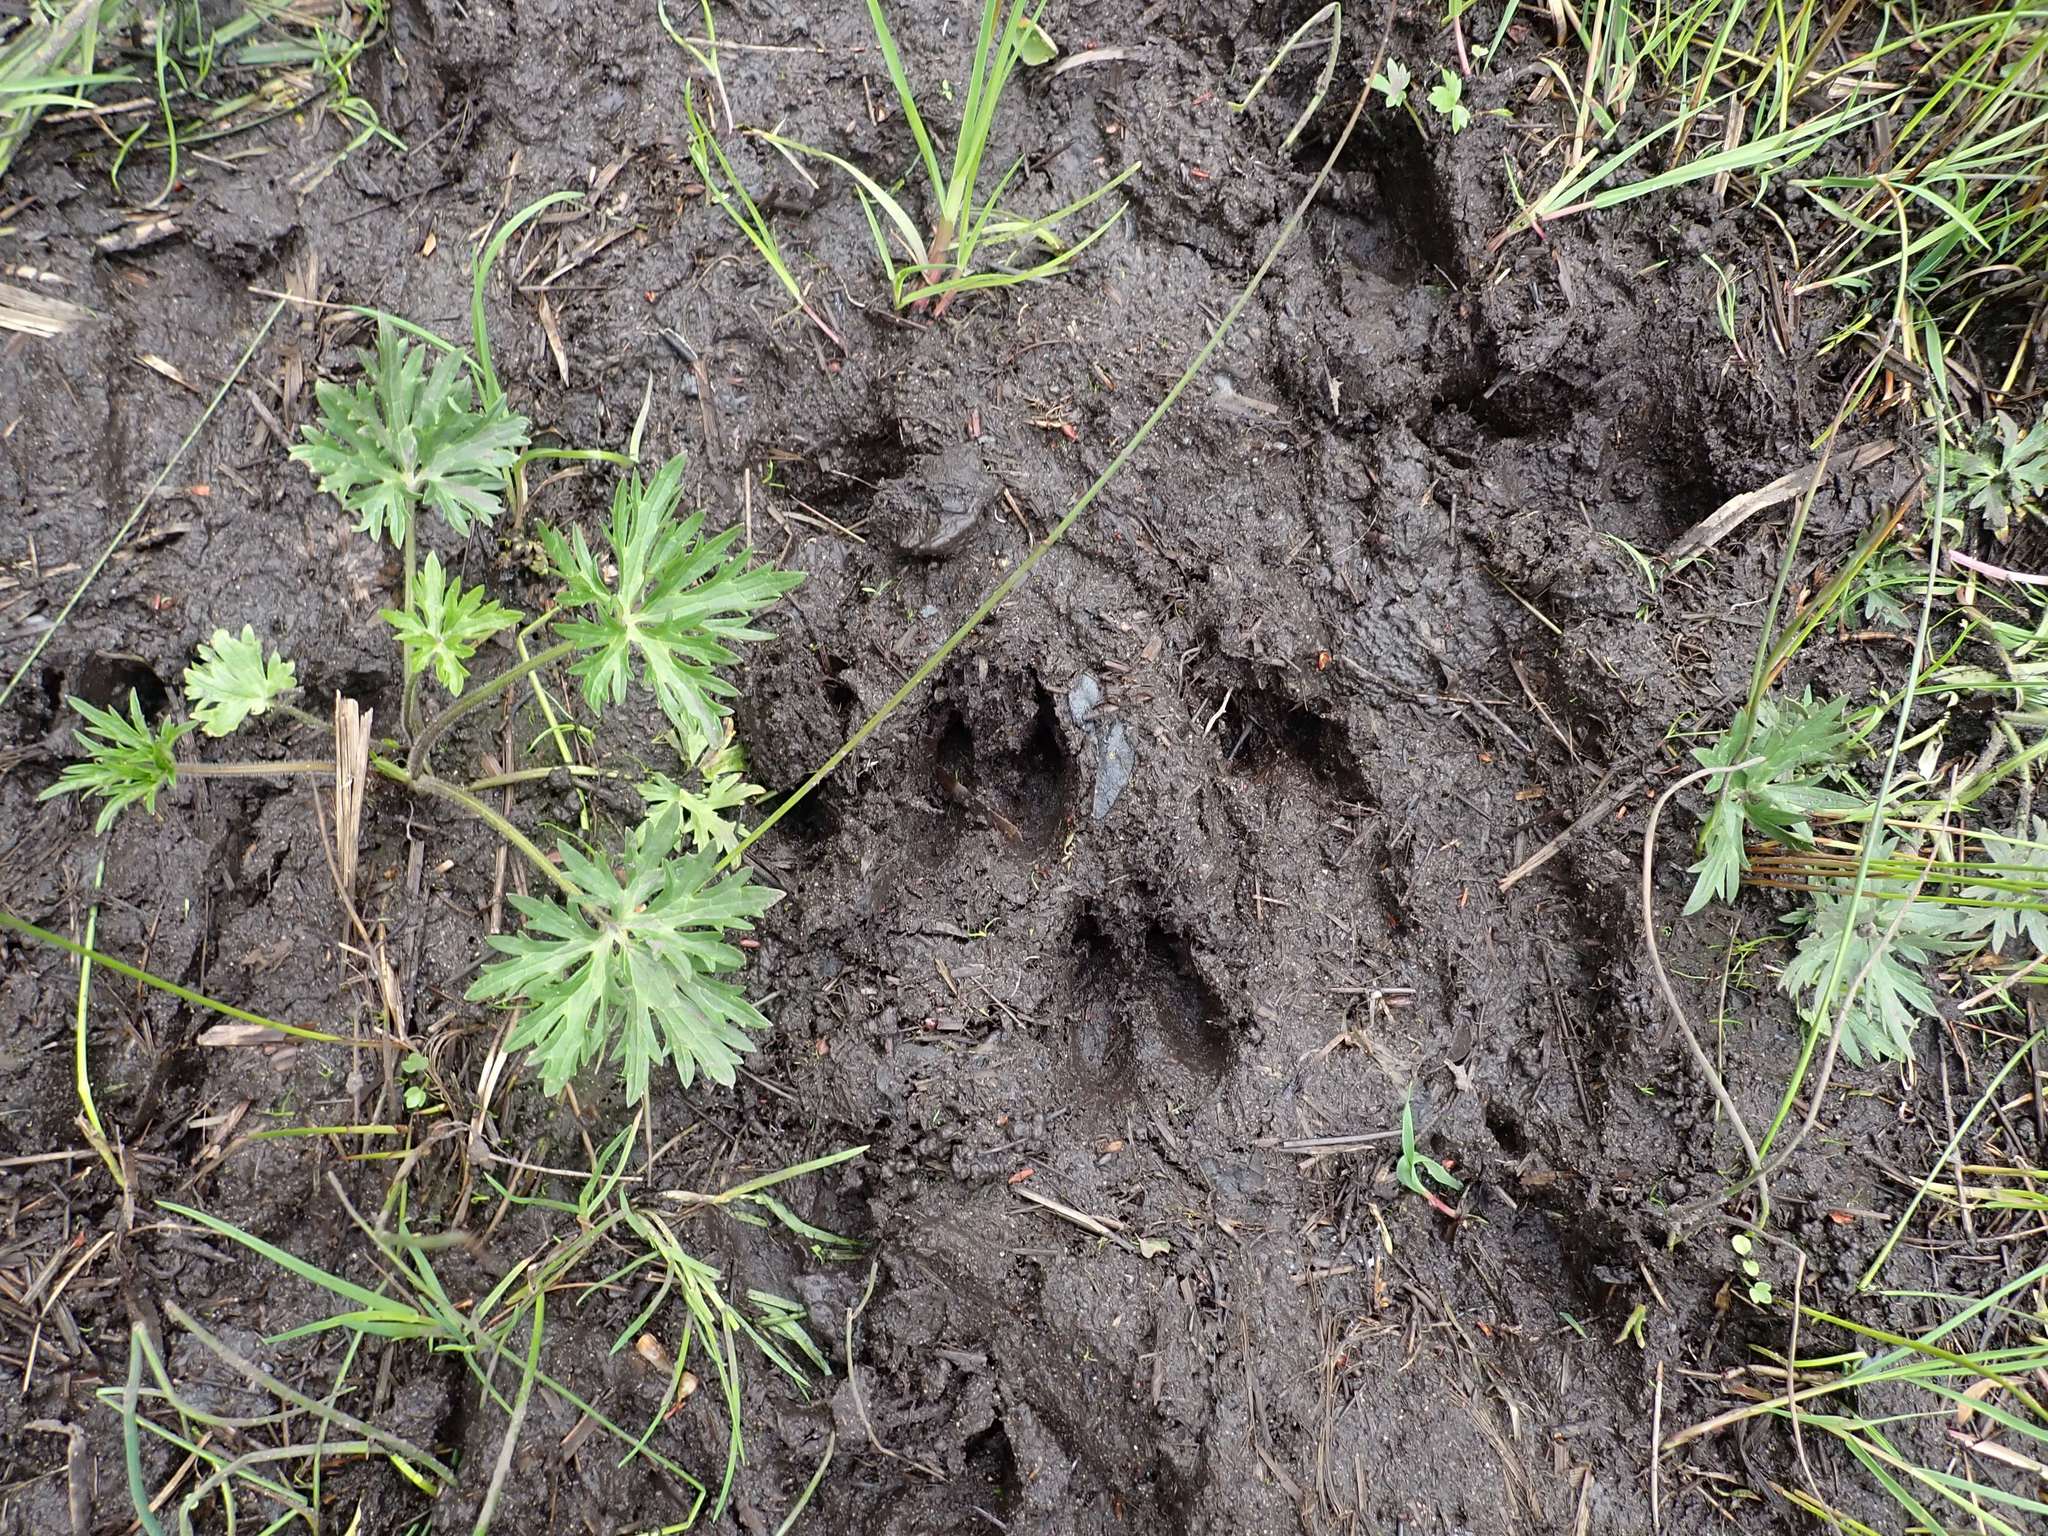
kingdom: Animalia
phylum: Chordata
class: Mammalia
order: Artiodactyla
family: Cervidae
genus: Odocoileus
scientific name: Odocoileus hemionus
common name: Mule deer
